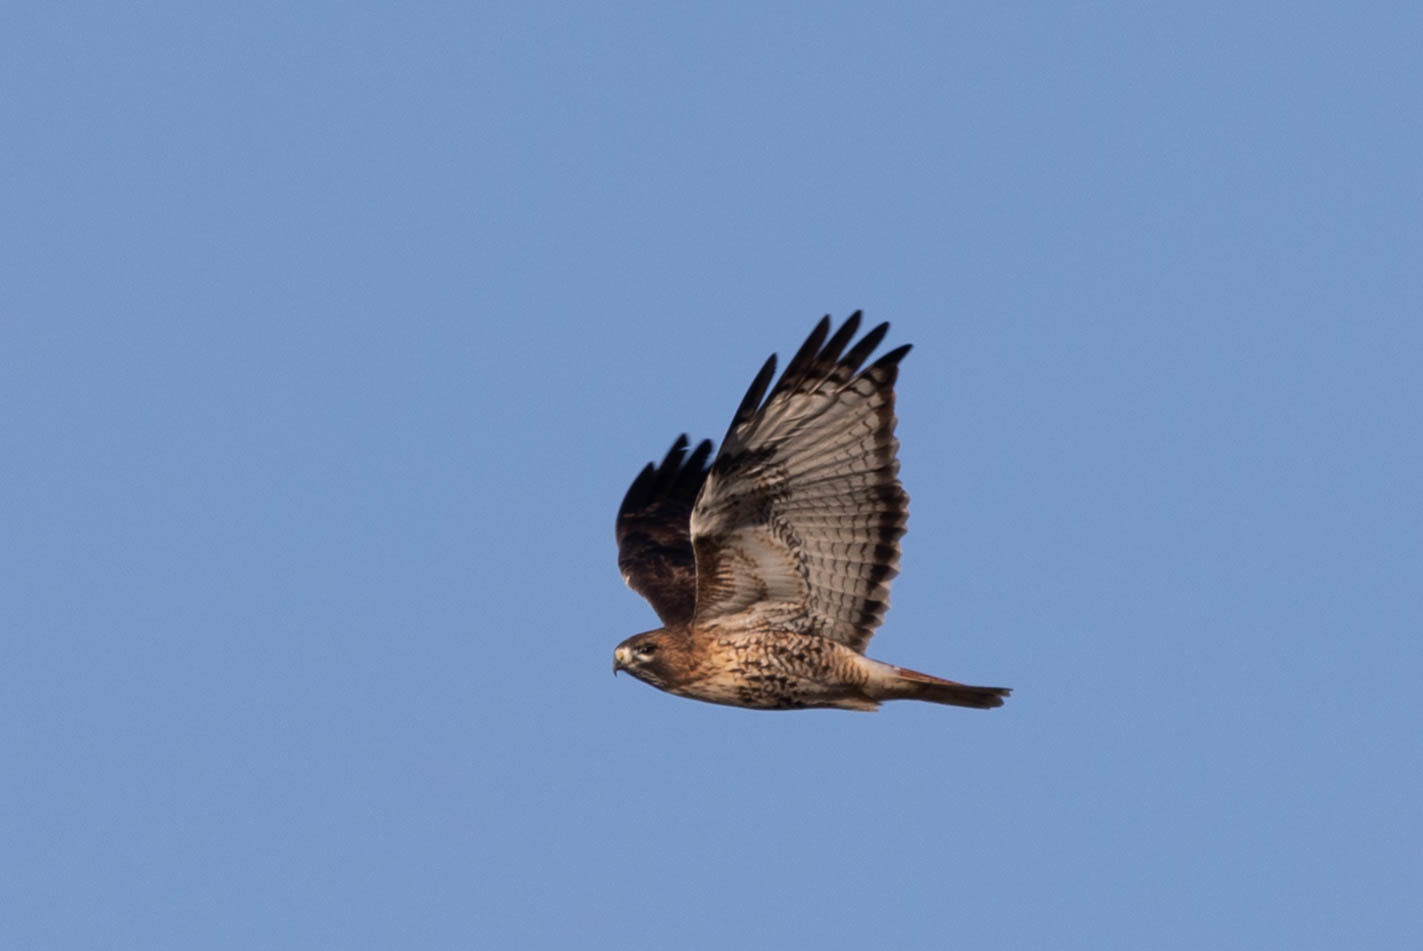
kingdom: Animalia
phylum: Chordata
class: Aves
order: Accipitriformes
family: Accipitridae
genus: Buteo
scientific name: Buteo jamaicensis
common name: Red-tailed hawk
